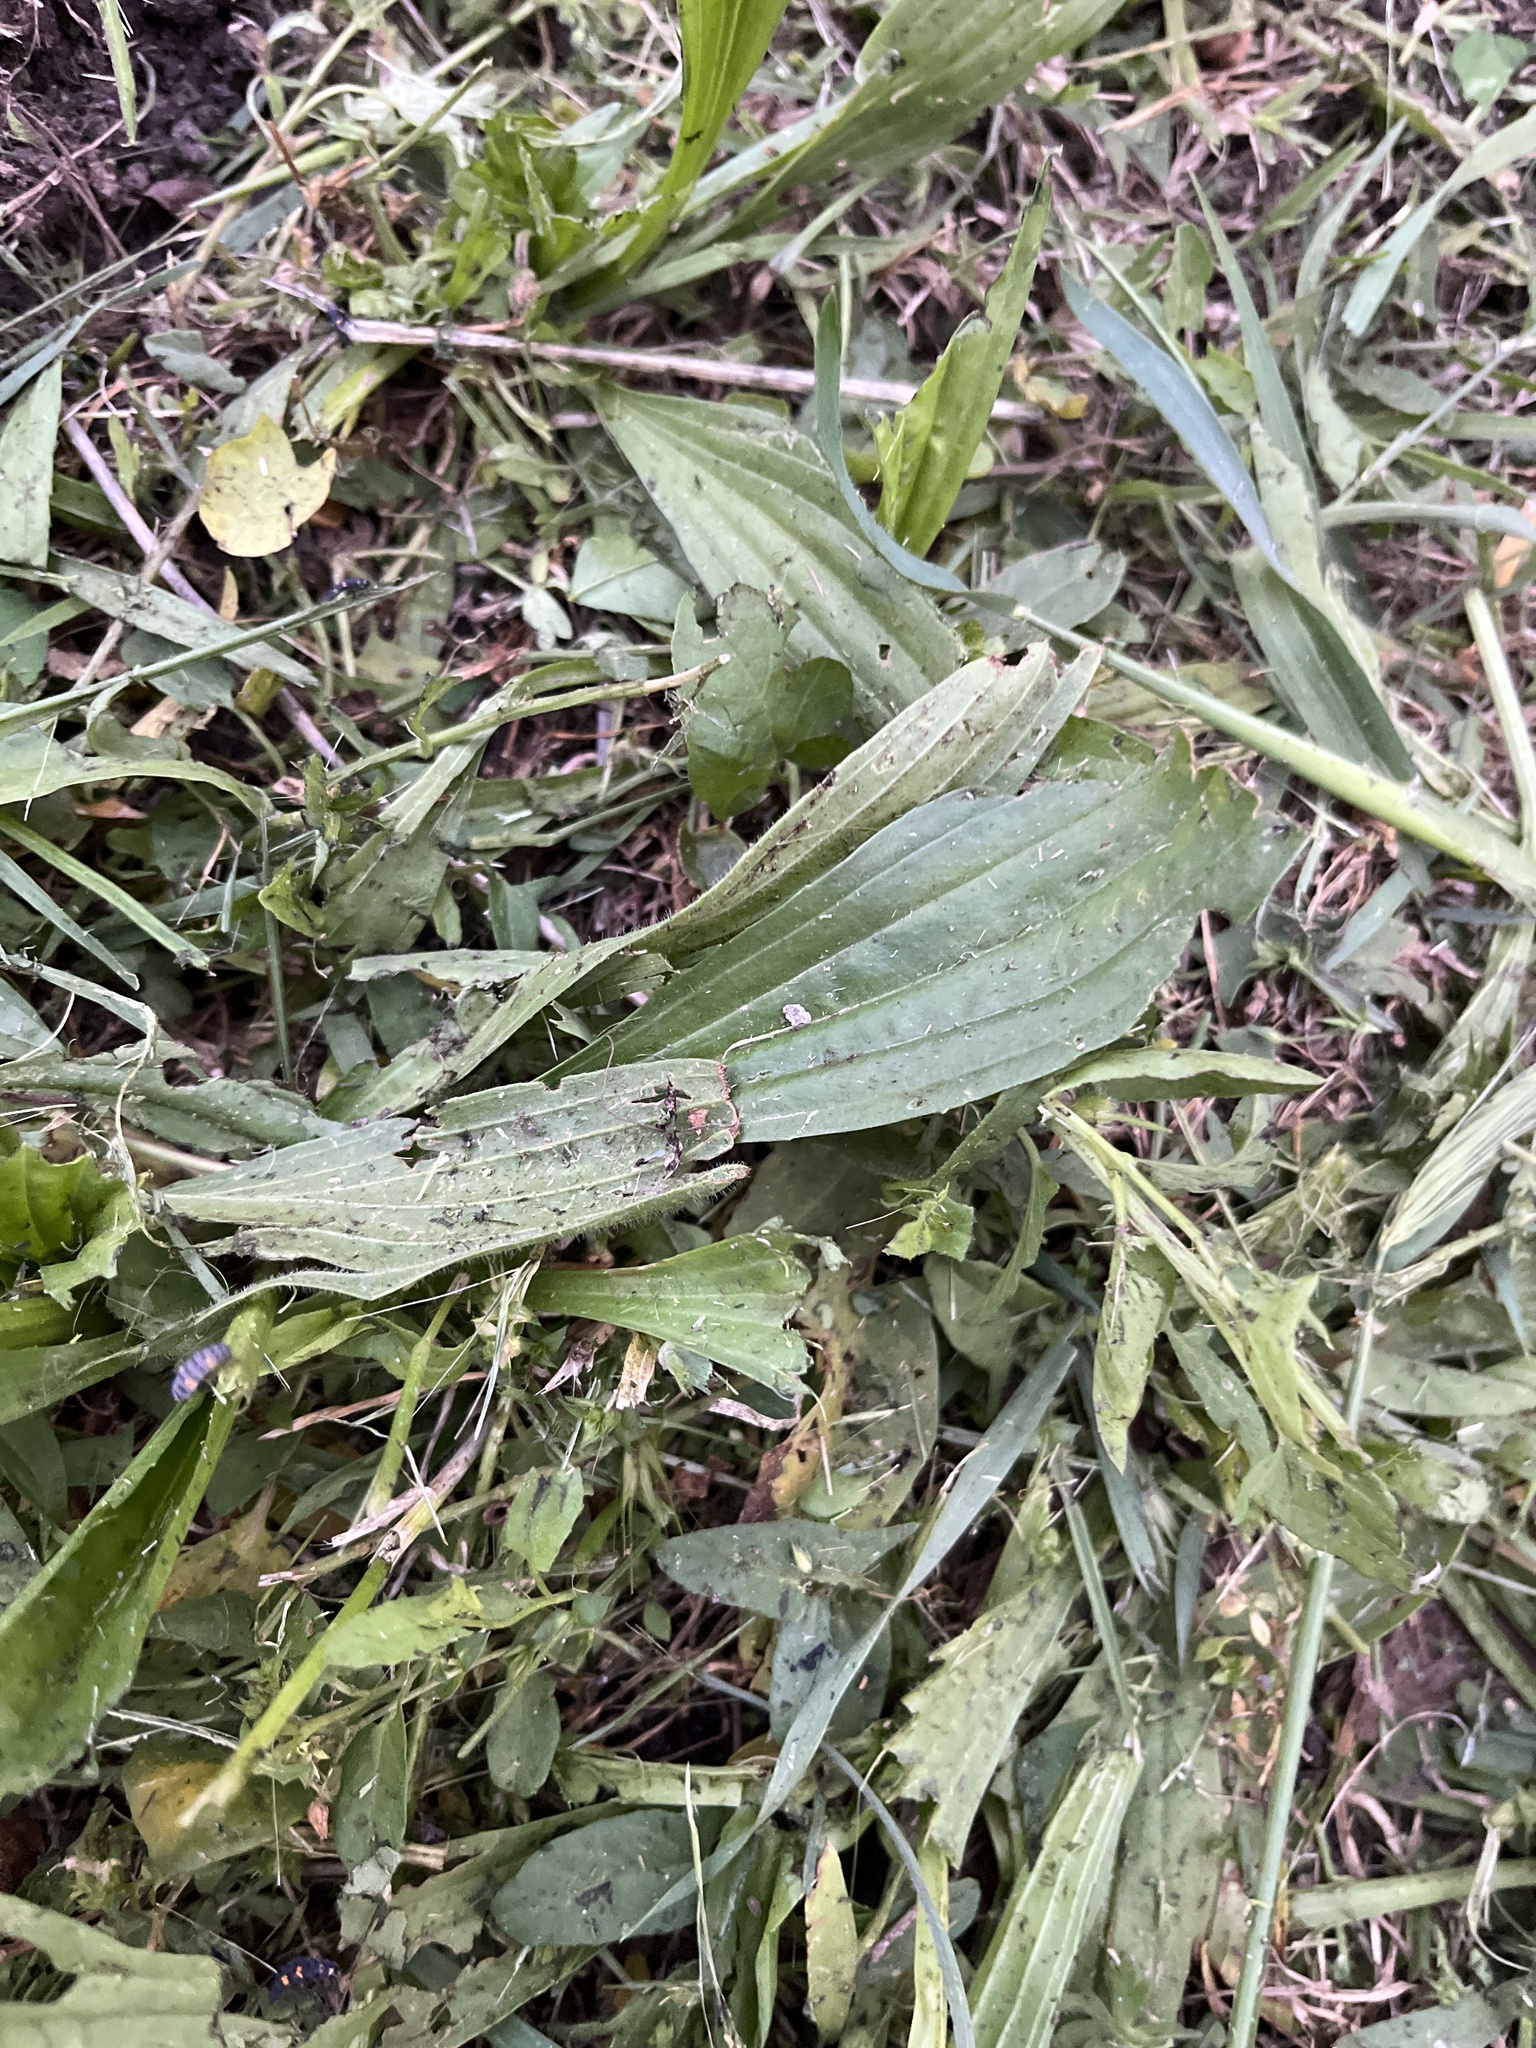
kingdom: Plantae
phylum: Tracheophyta
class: Magnoliopsida
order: Lamiales
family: Plantaginaceae
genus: Plantago
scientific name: Plantago lanceolata
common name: Ribwort plantain
